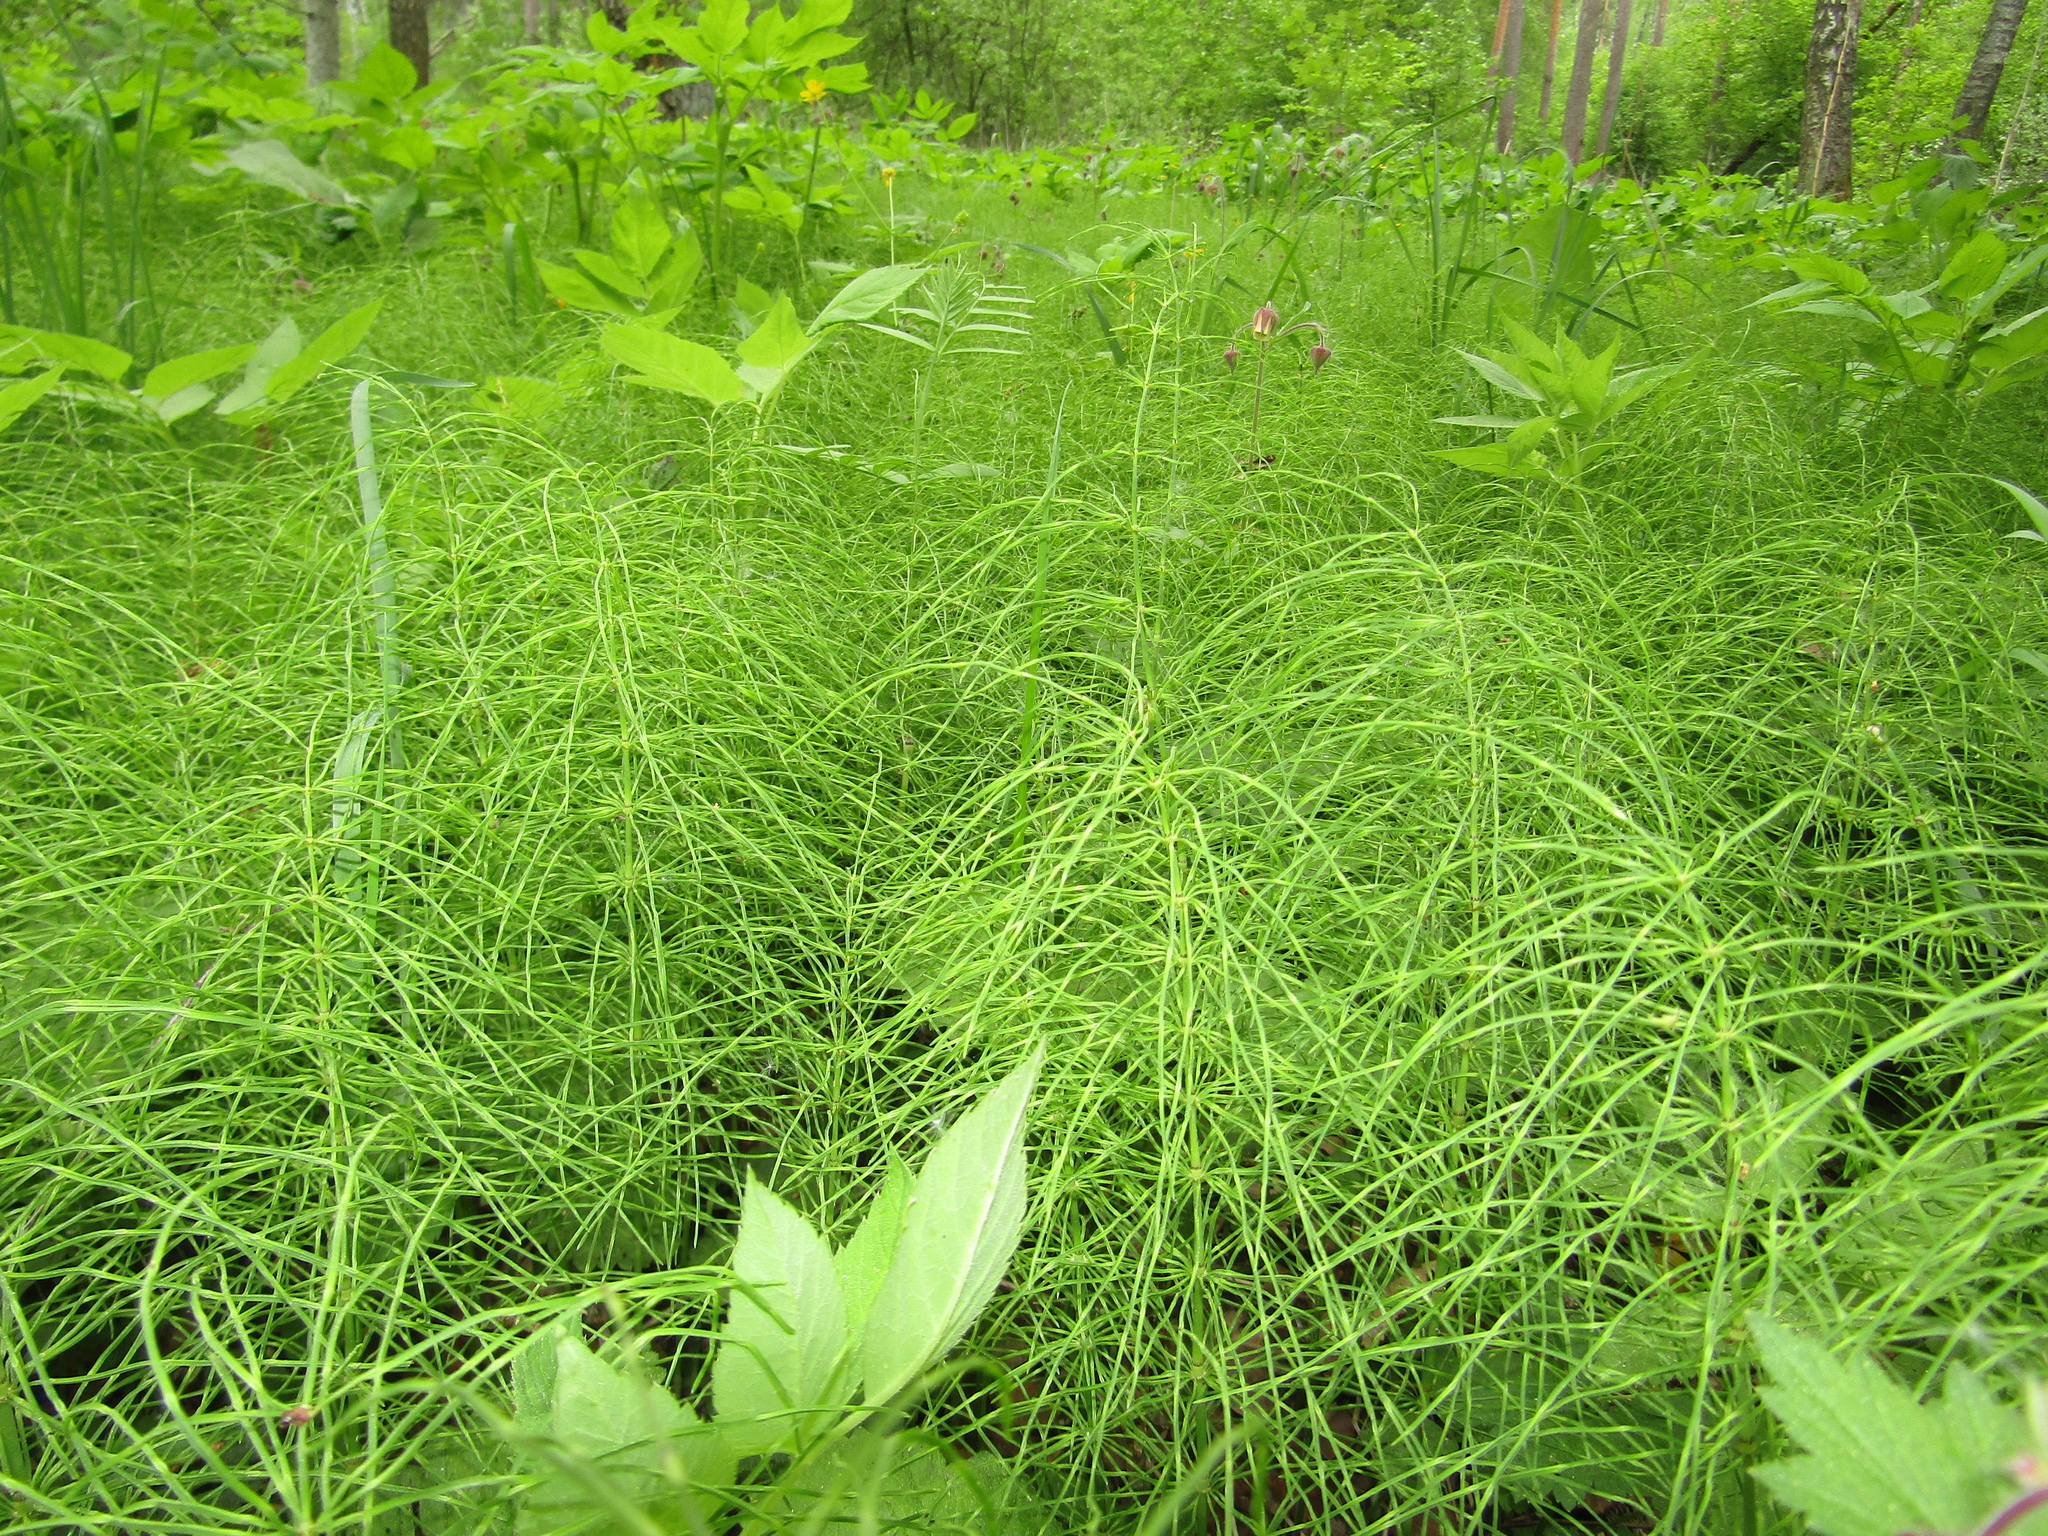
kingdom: Plantae
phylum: Tracheophyta
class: Polypodiopsida
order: Equisetales
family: Equisetaceae
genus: Equisetum
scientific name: Equisetum pratense
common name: Meadow horsetail
